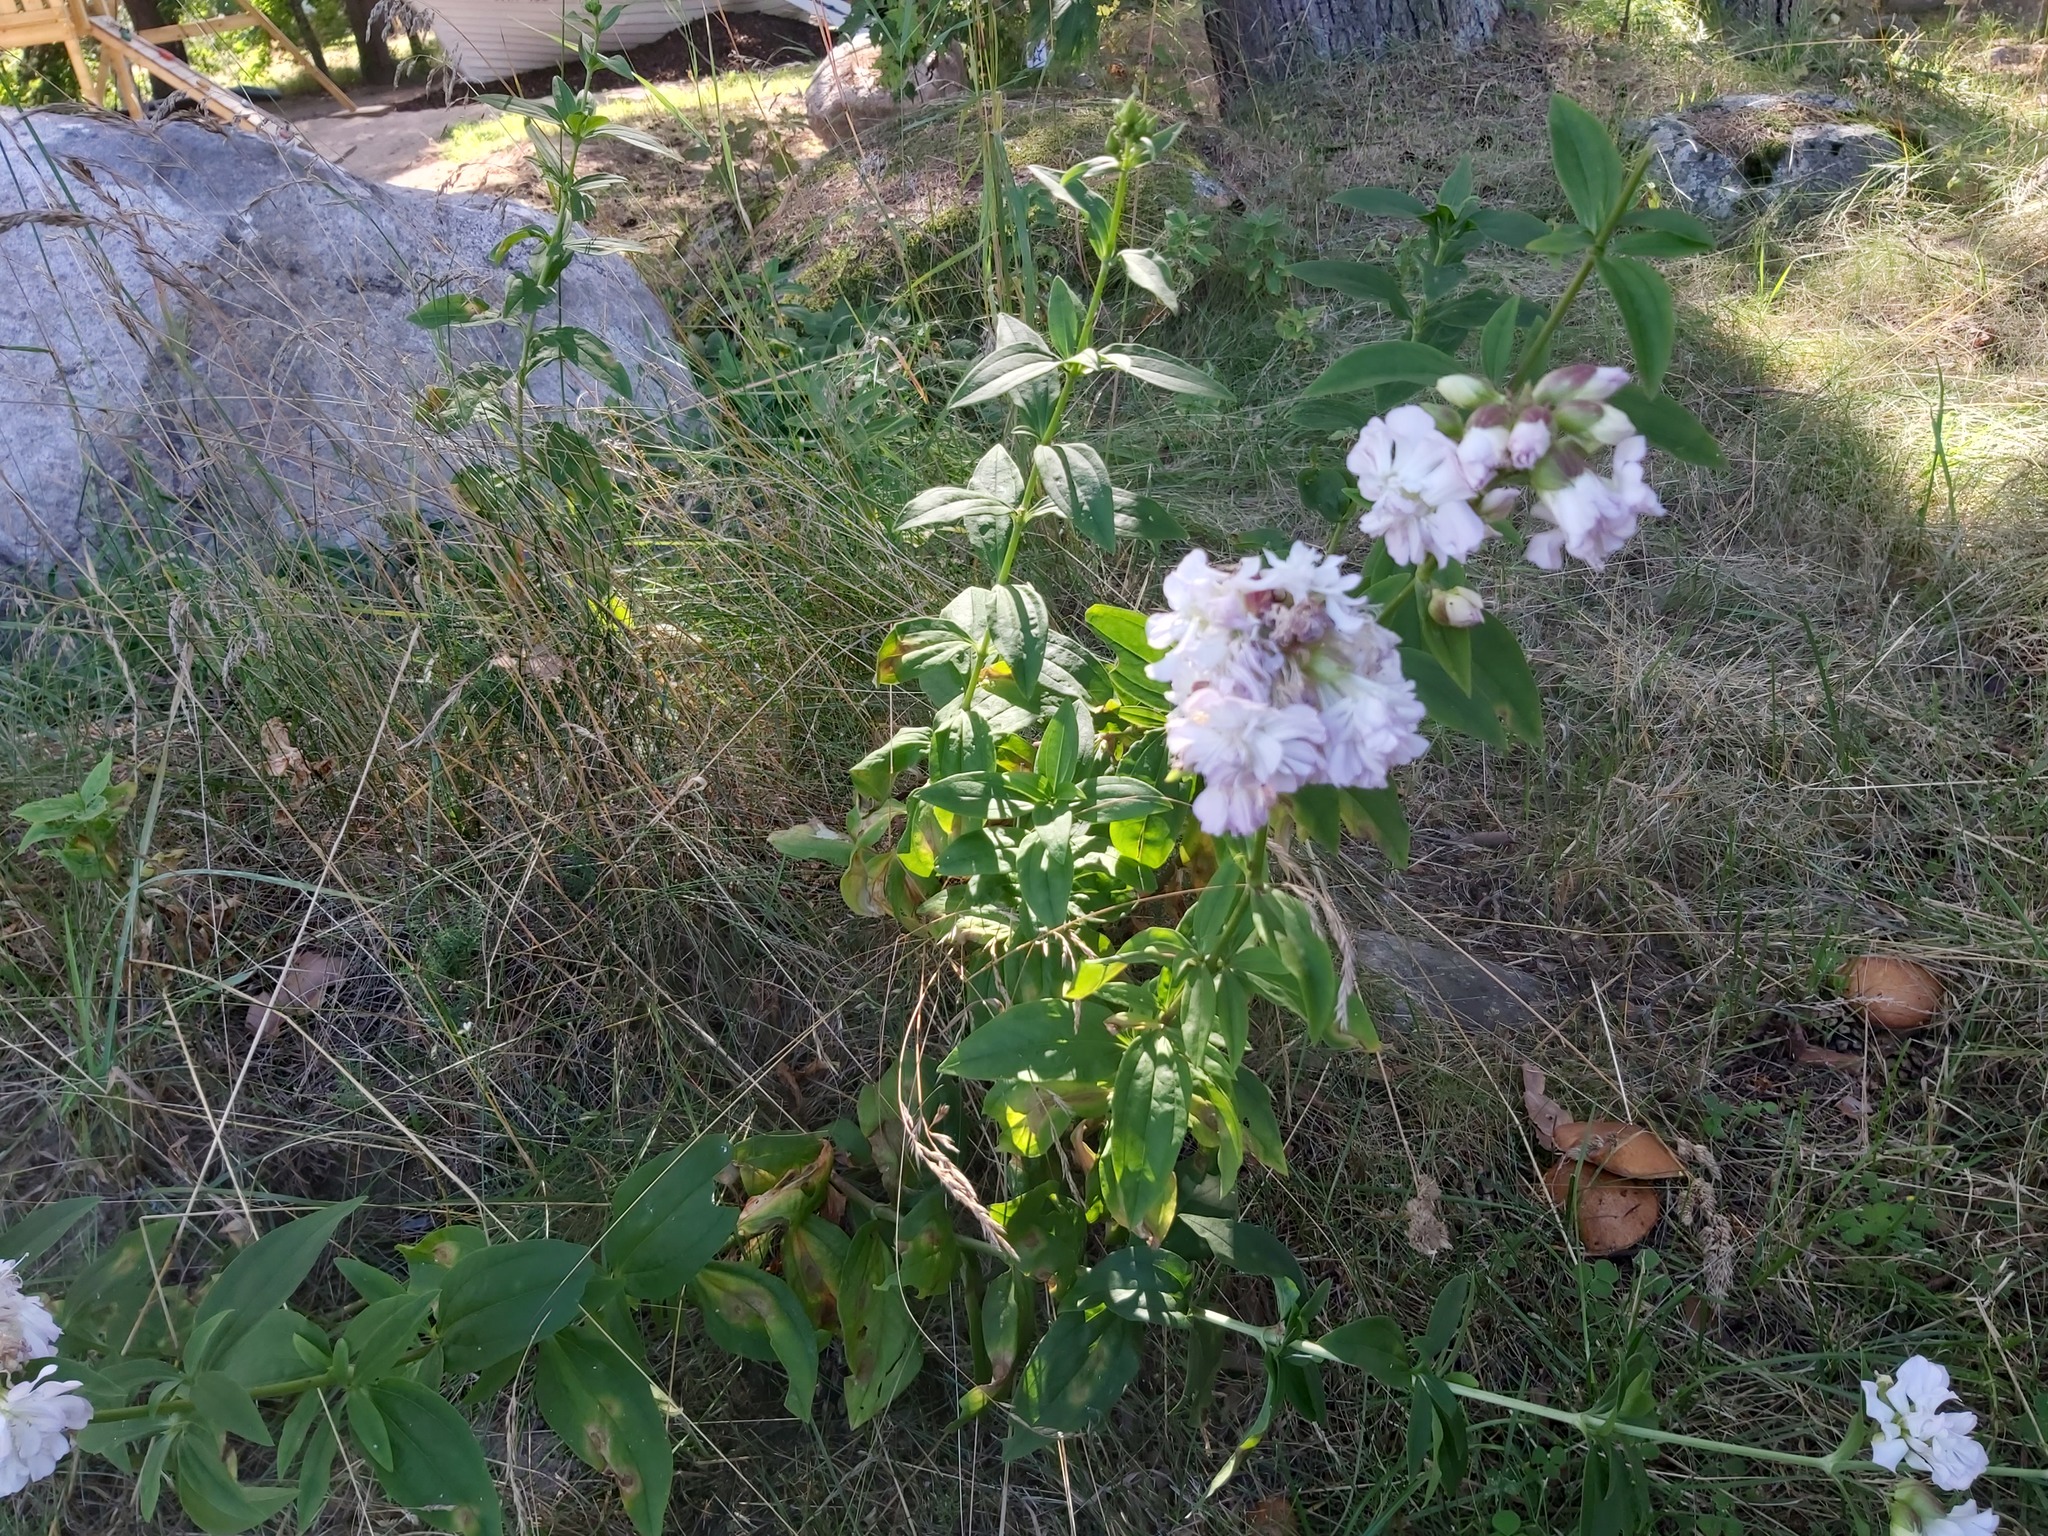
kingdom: Plantae
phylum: Tracheophyta
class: Magnoliopsida
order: Caryophyllales
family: Caryophyllaceae
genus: Saponaria
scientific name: Saponaria officinalis
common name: Soapwort
